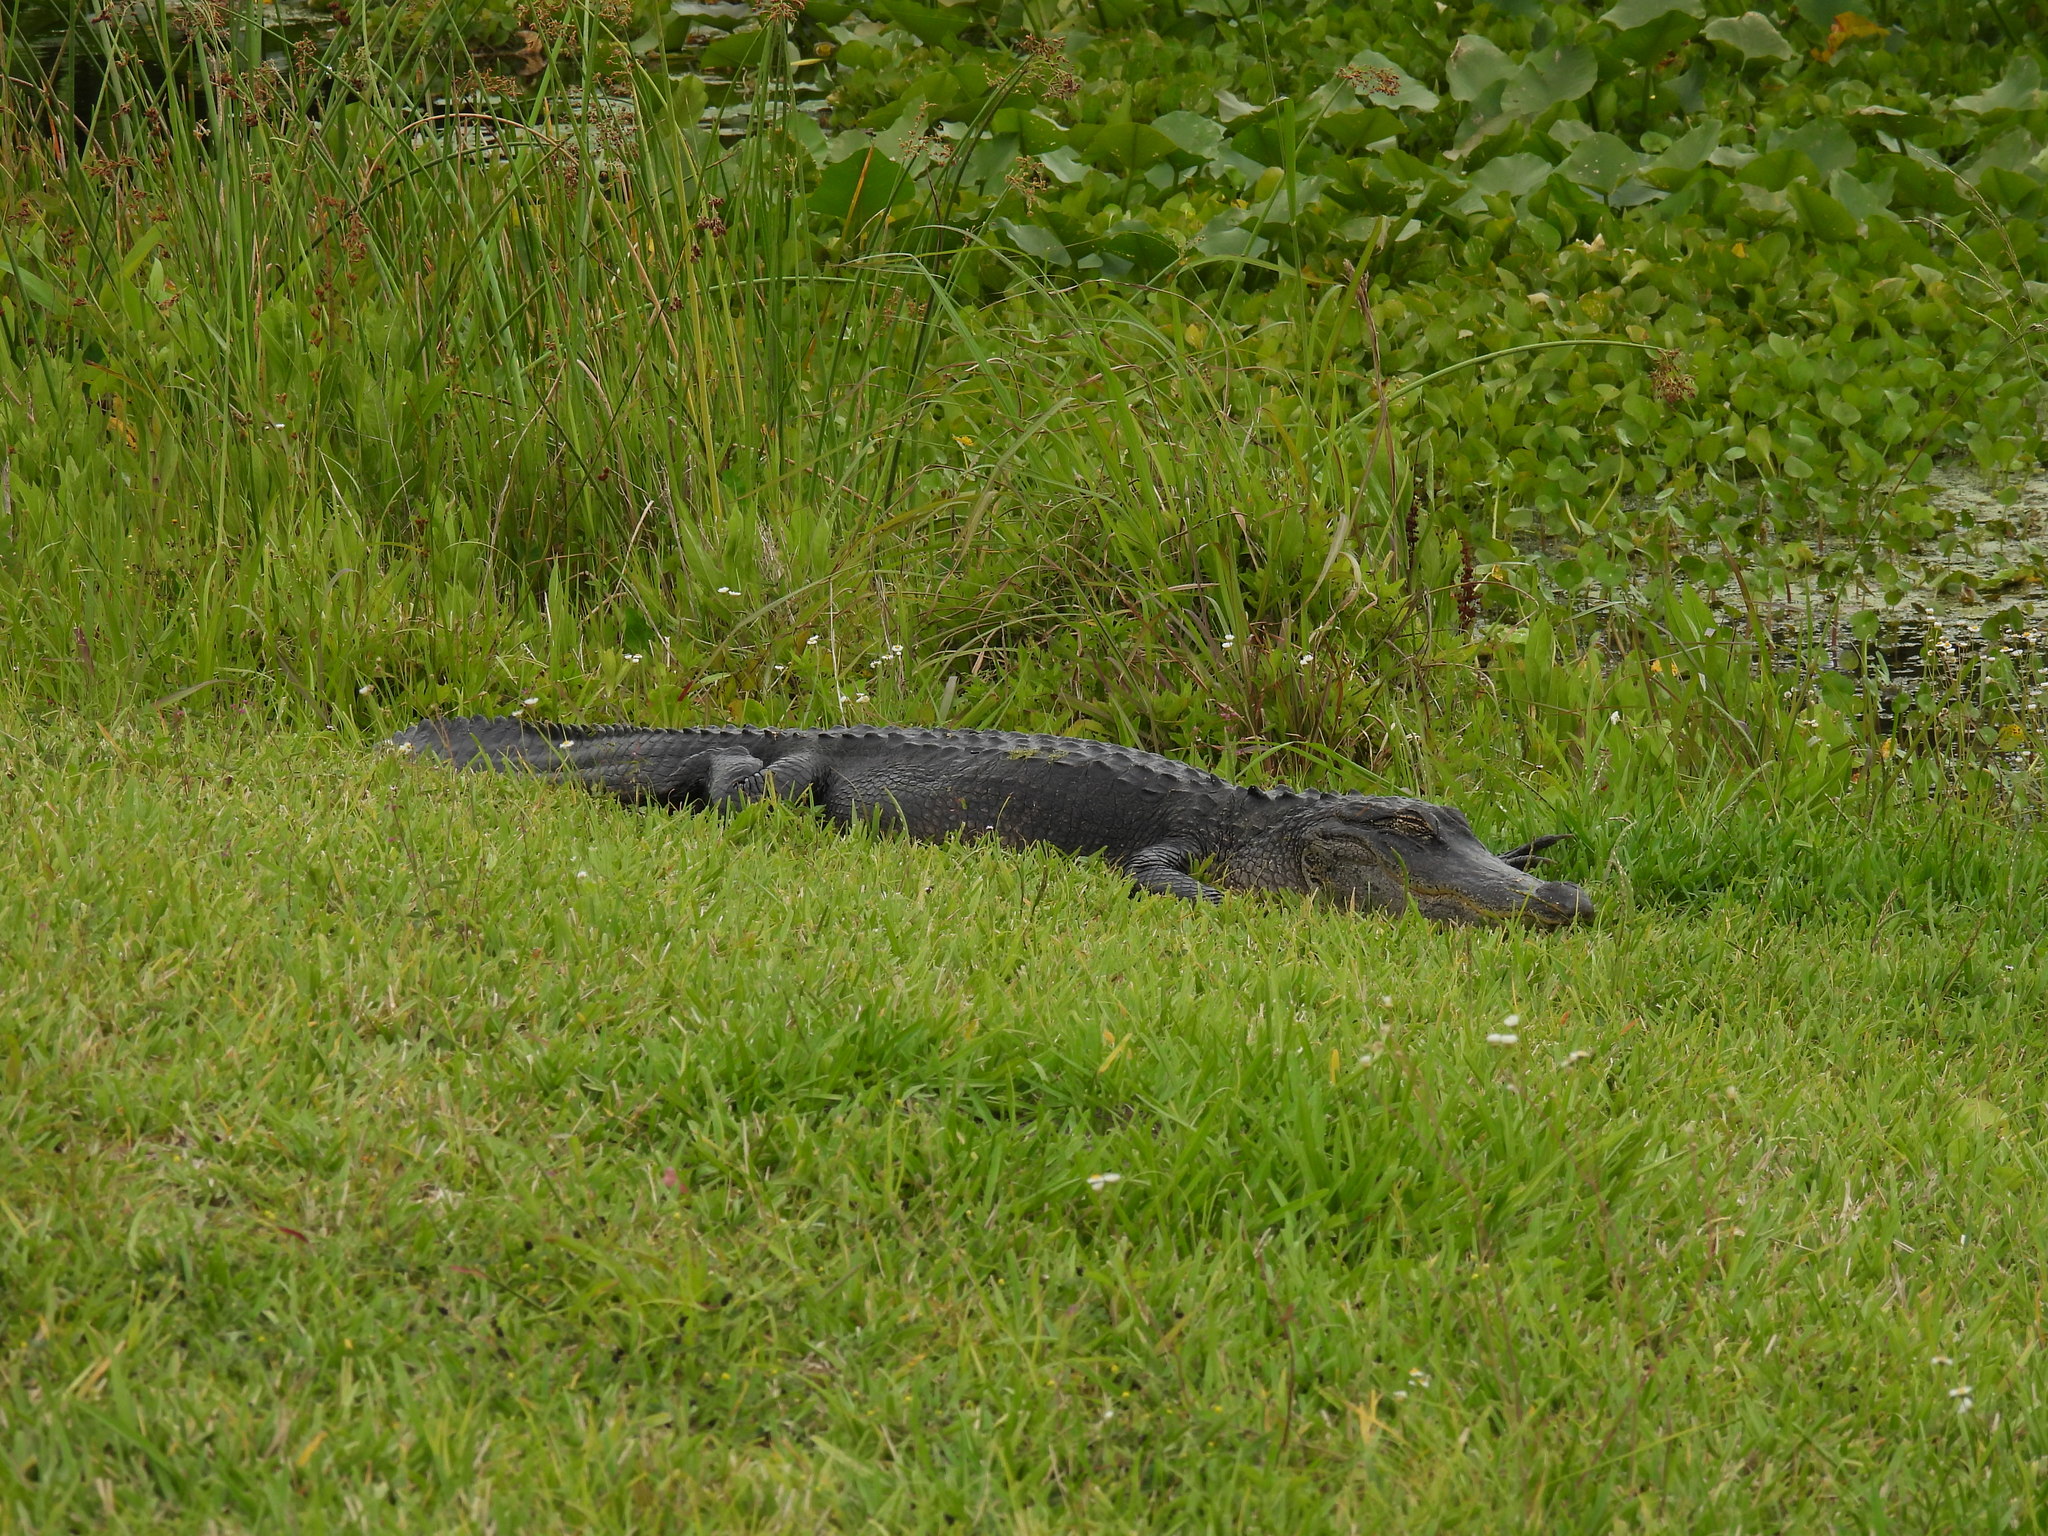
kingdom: Animalia
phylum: Chordata
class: Crocodylia
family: Alligatoridae
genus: Alligator
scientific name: Alligator mississippiensis
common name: American alligator
